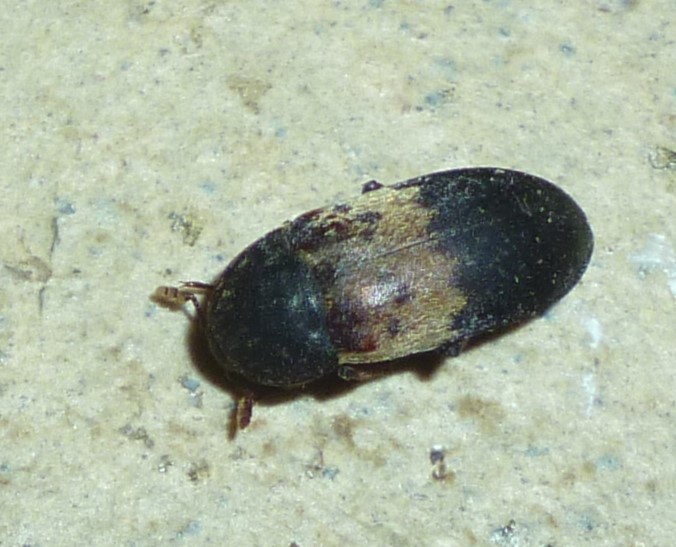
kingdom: Animalia
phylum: Arthropoda
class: Insecta
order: Coleoptera
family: Dermestidae
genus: Dermestes
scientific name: Dermestes lardarius
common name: Larder beetle
